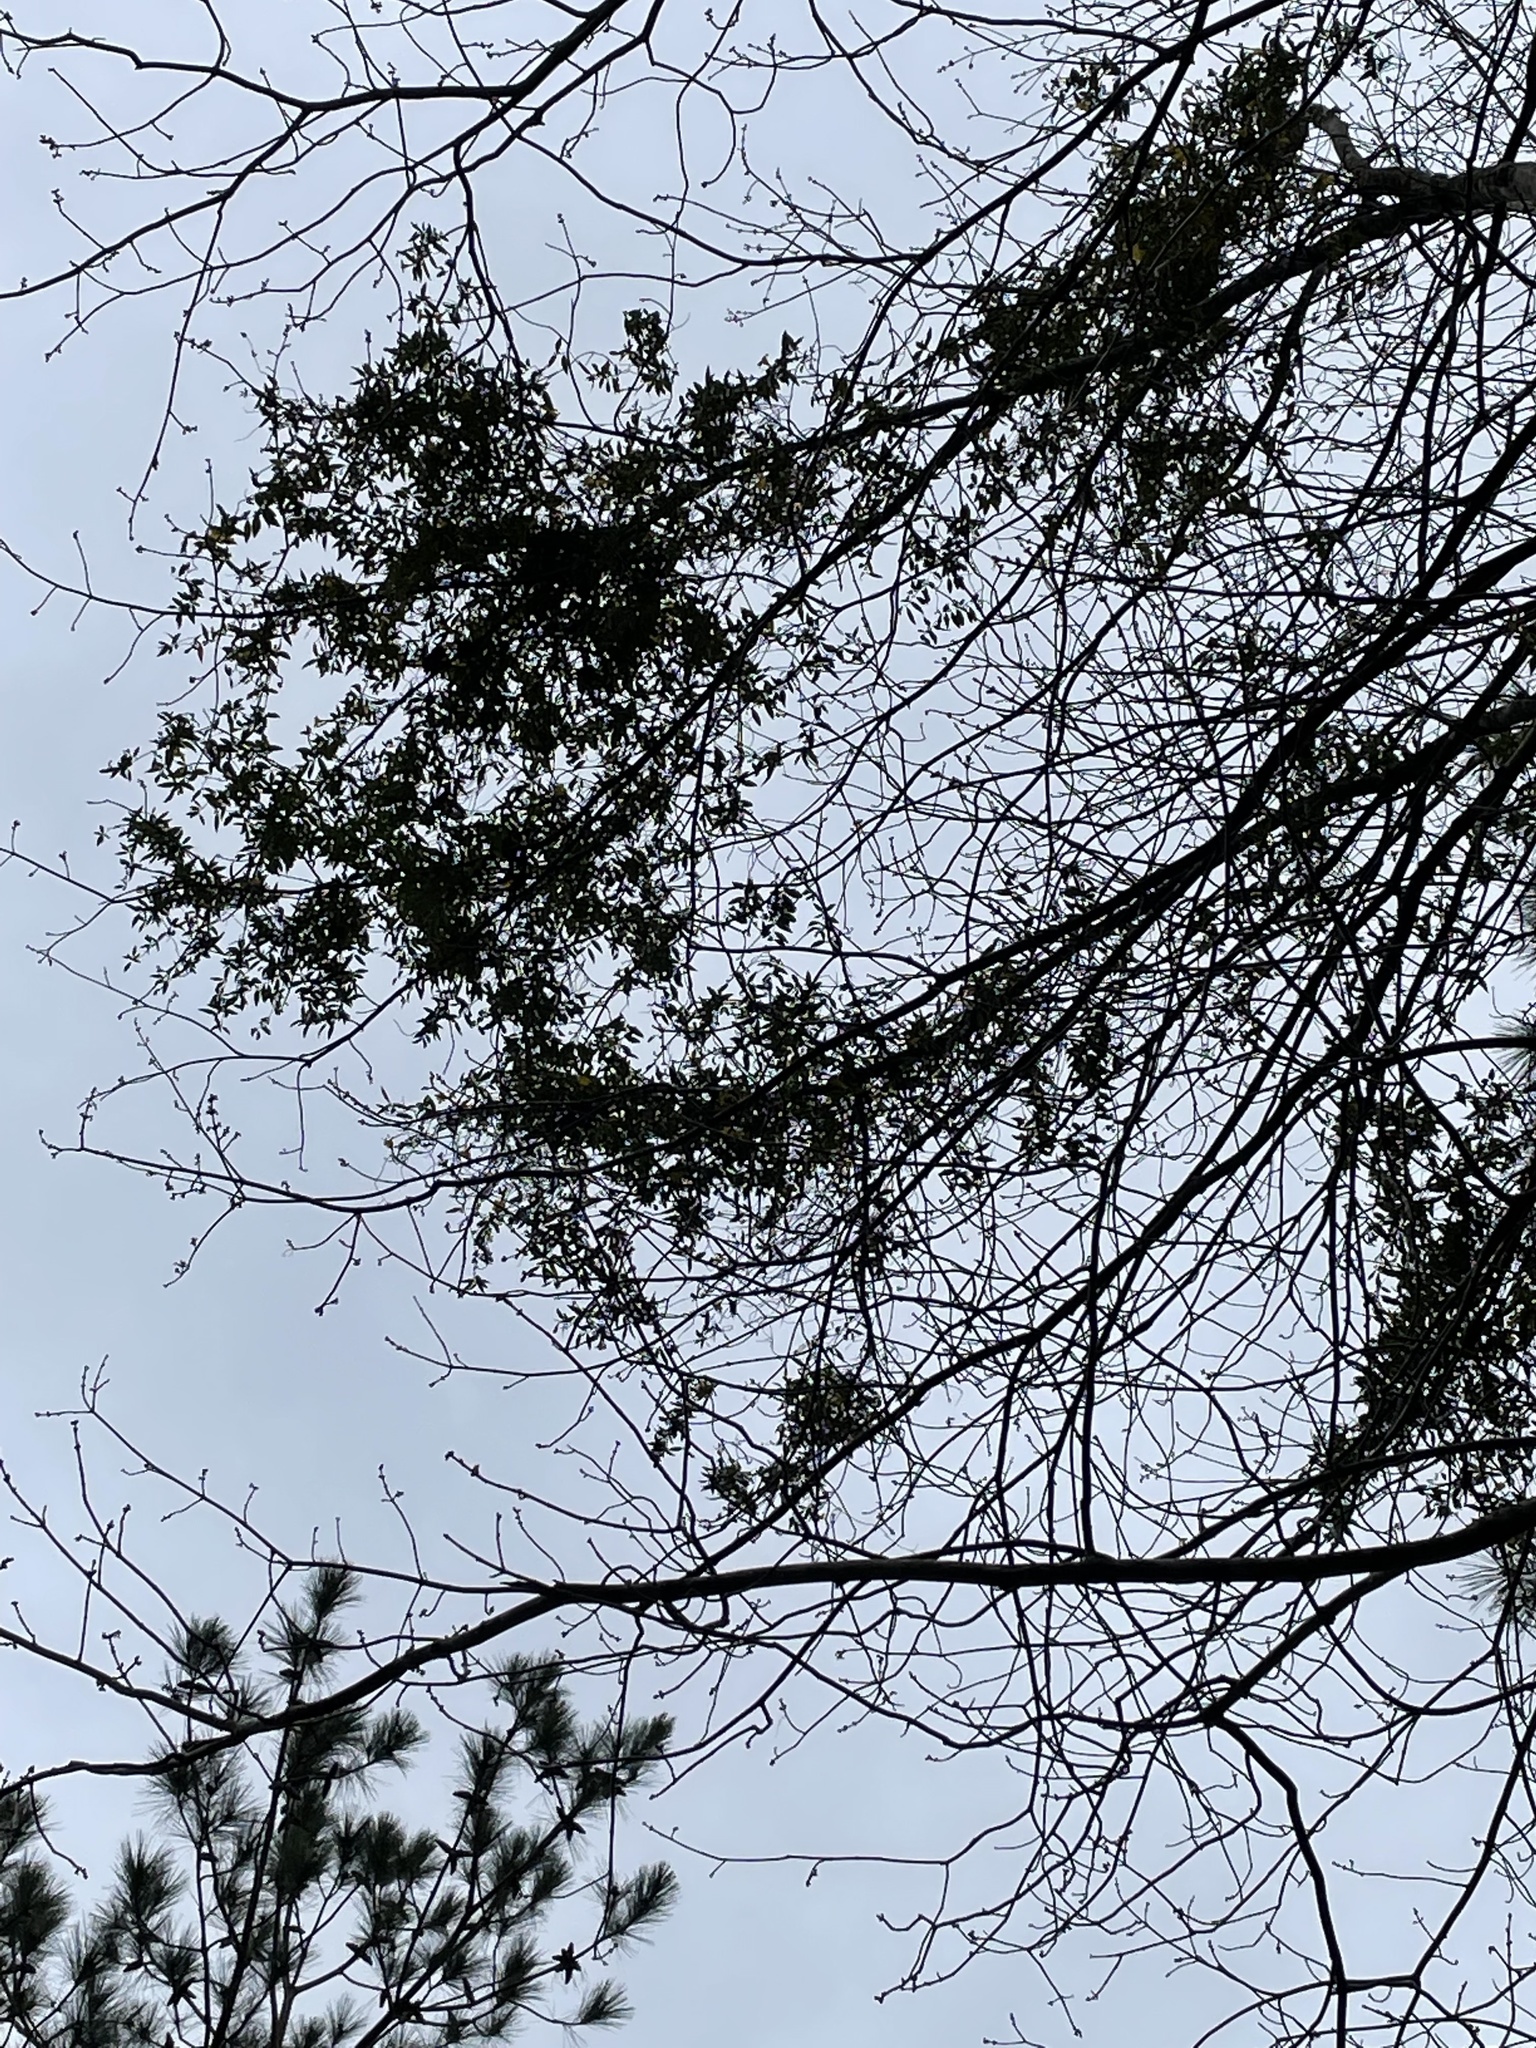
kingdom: Plantae
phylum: Tracheophyta
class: Magnoliopsida
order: Gentianales
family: Gelsemiaceae
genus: Gelsemium
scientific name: Gelsemium sempervirens
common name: Carolina-jasmine
